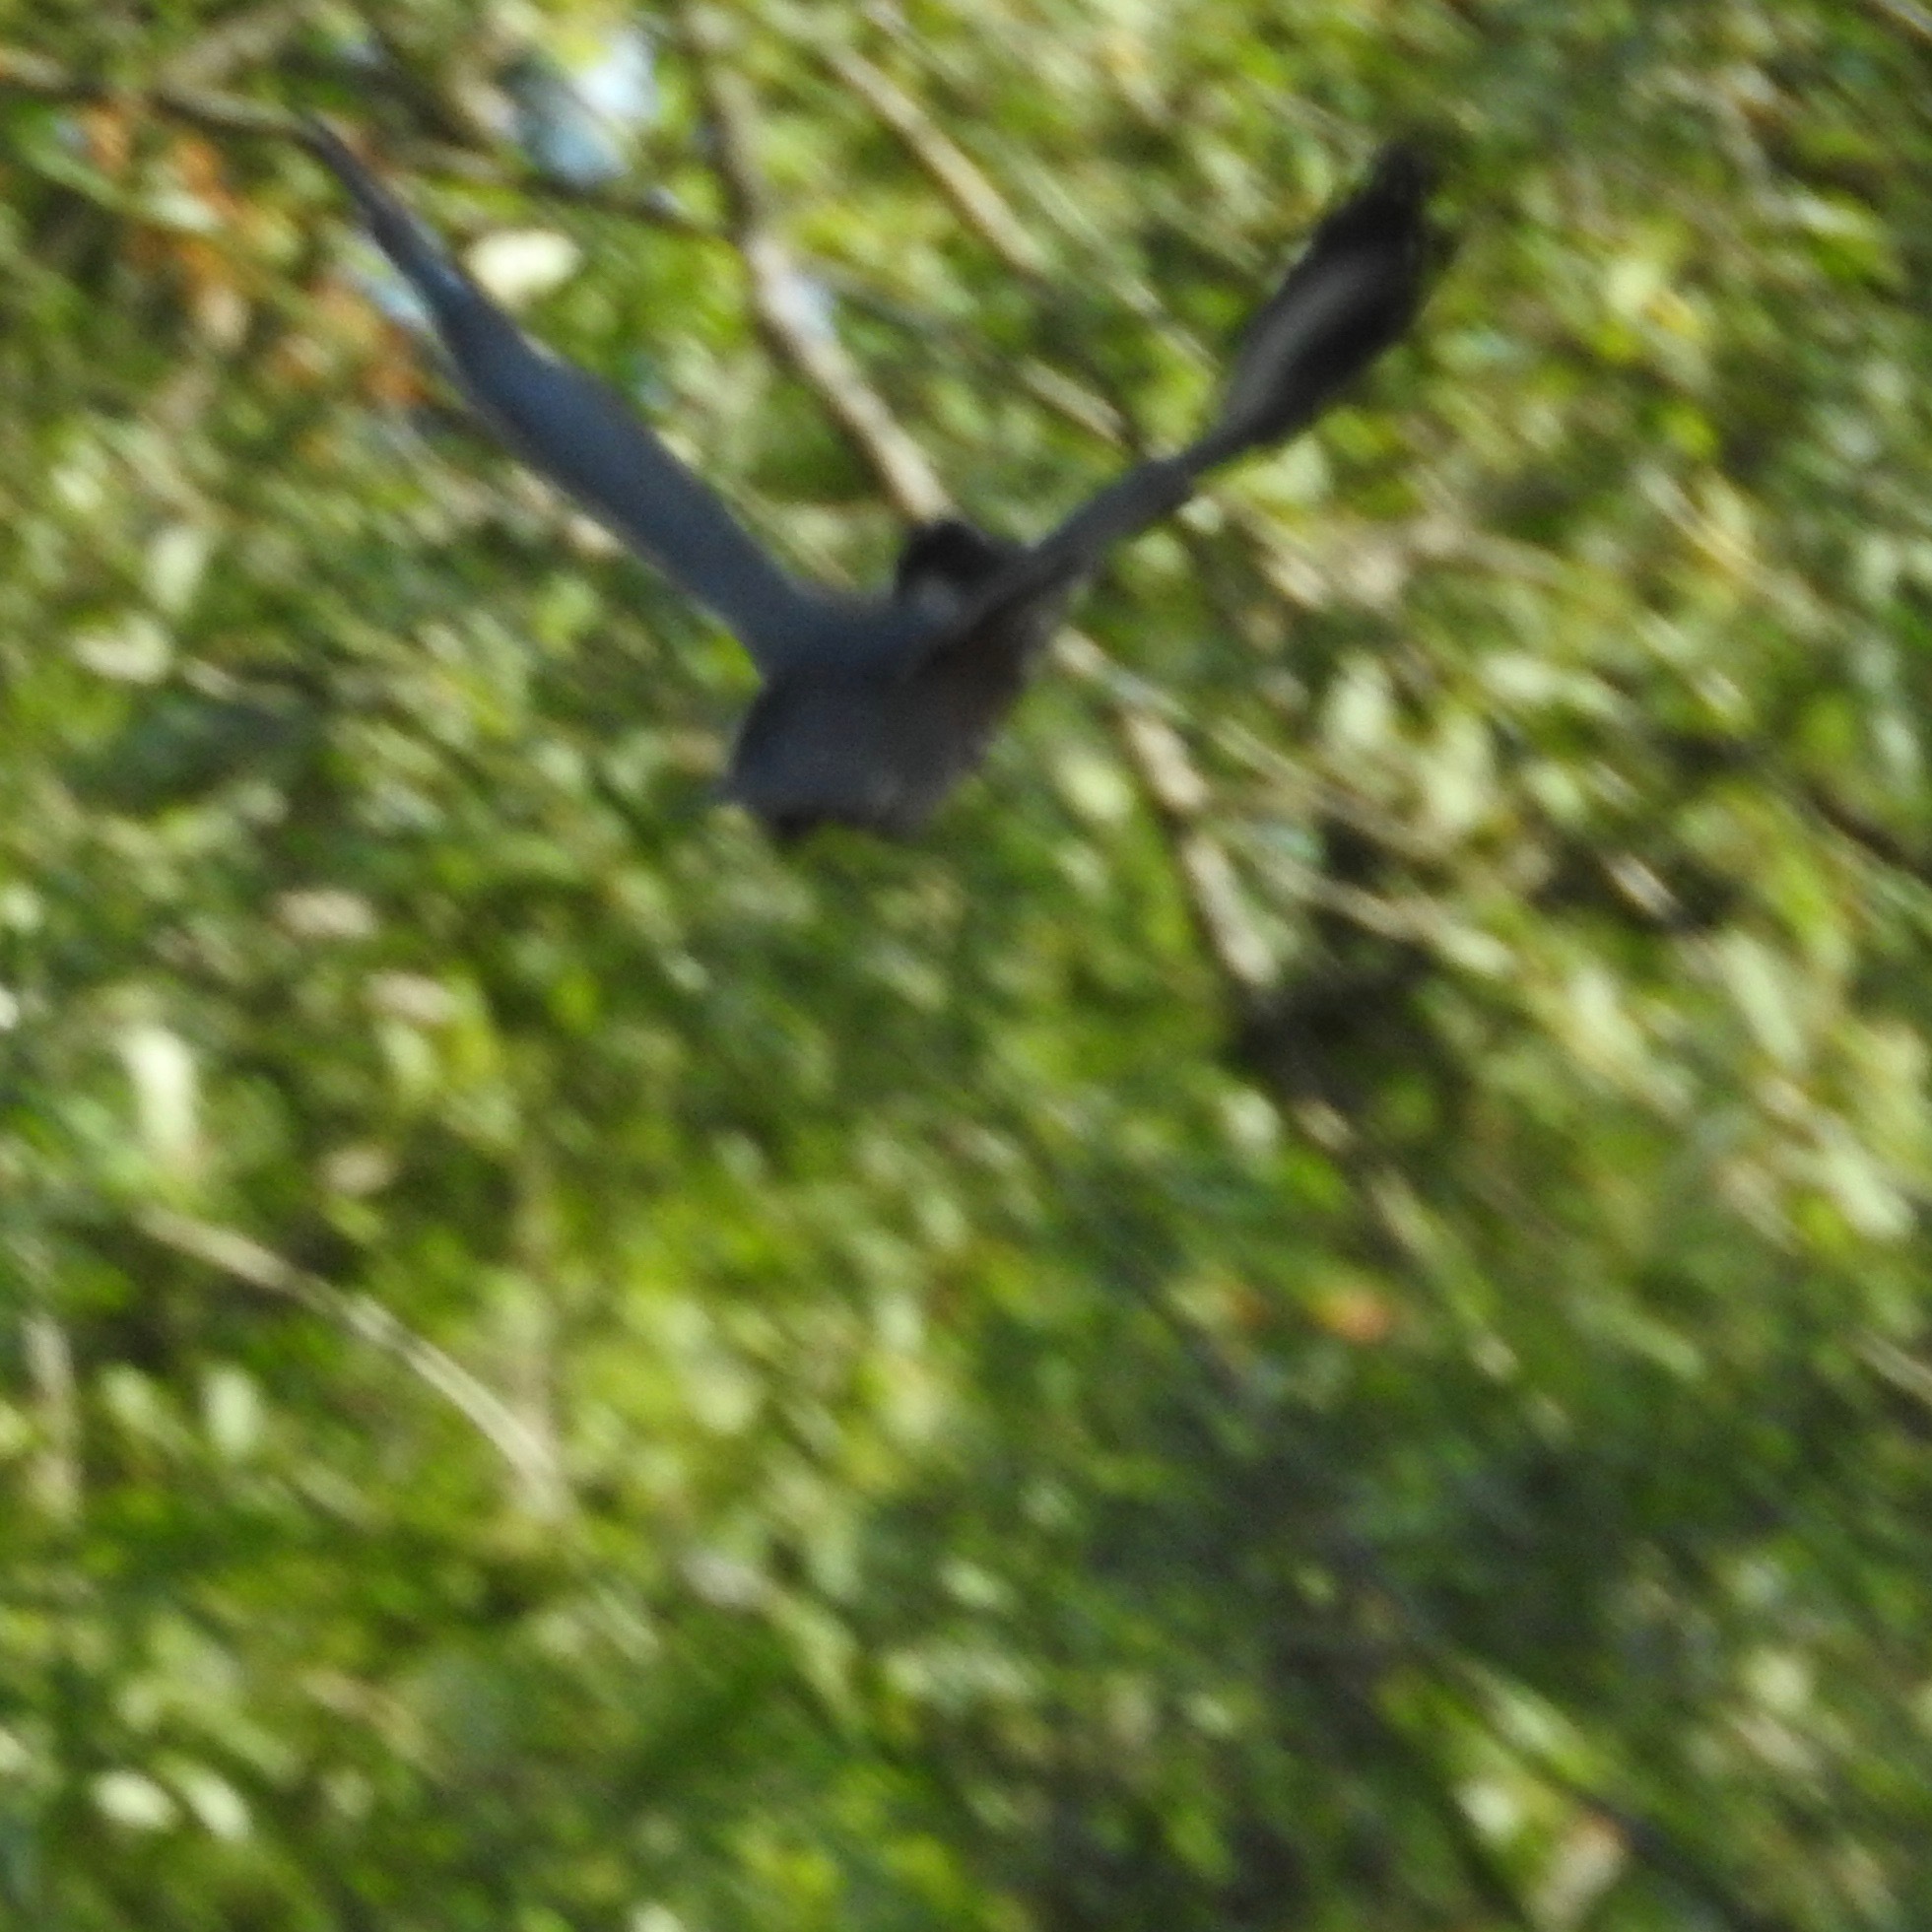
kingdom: Animalia
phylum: Chordata
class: Aves
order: Coraciiformes
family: Alcedinidae
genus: Megaceryle
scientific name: Megaceryle alcyon
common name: Belted kingfisher
